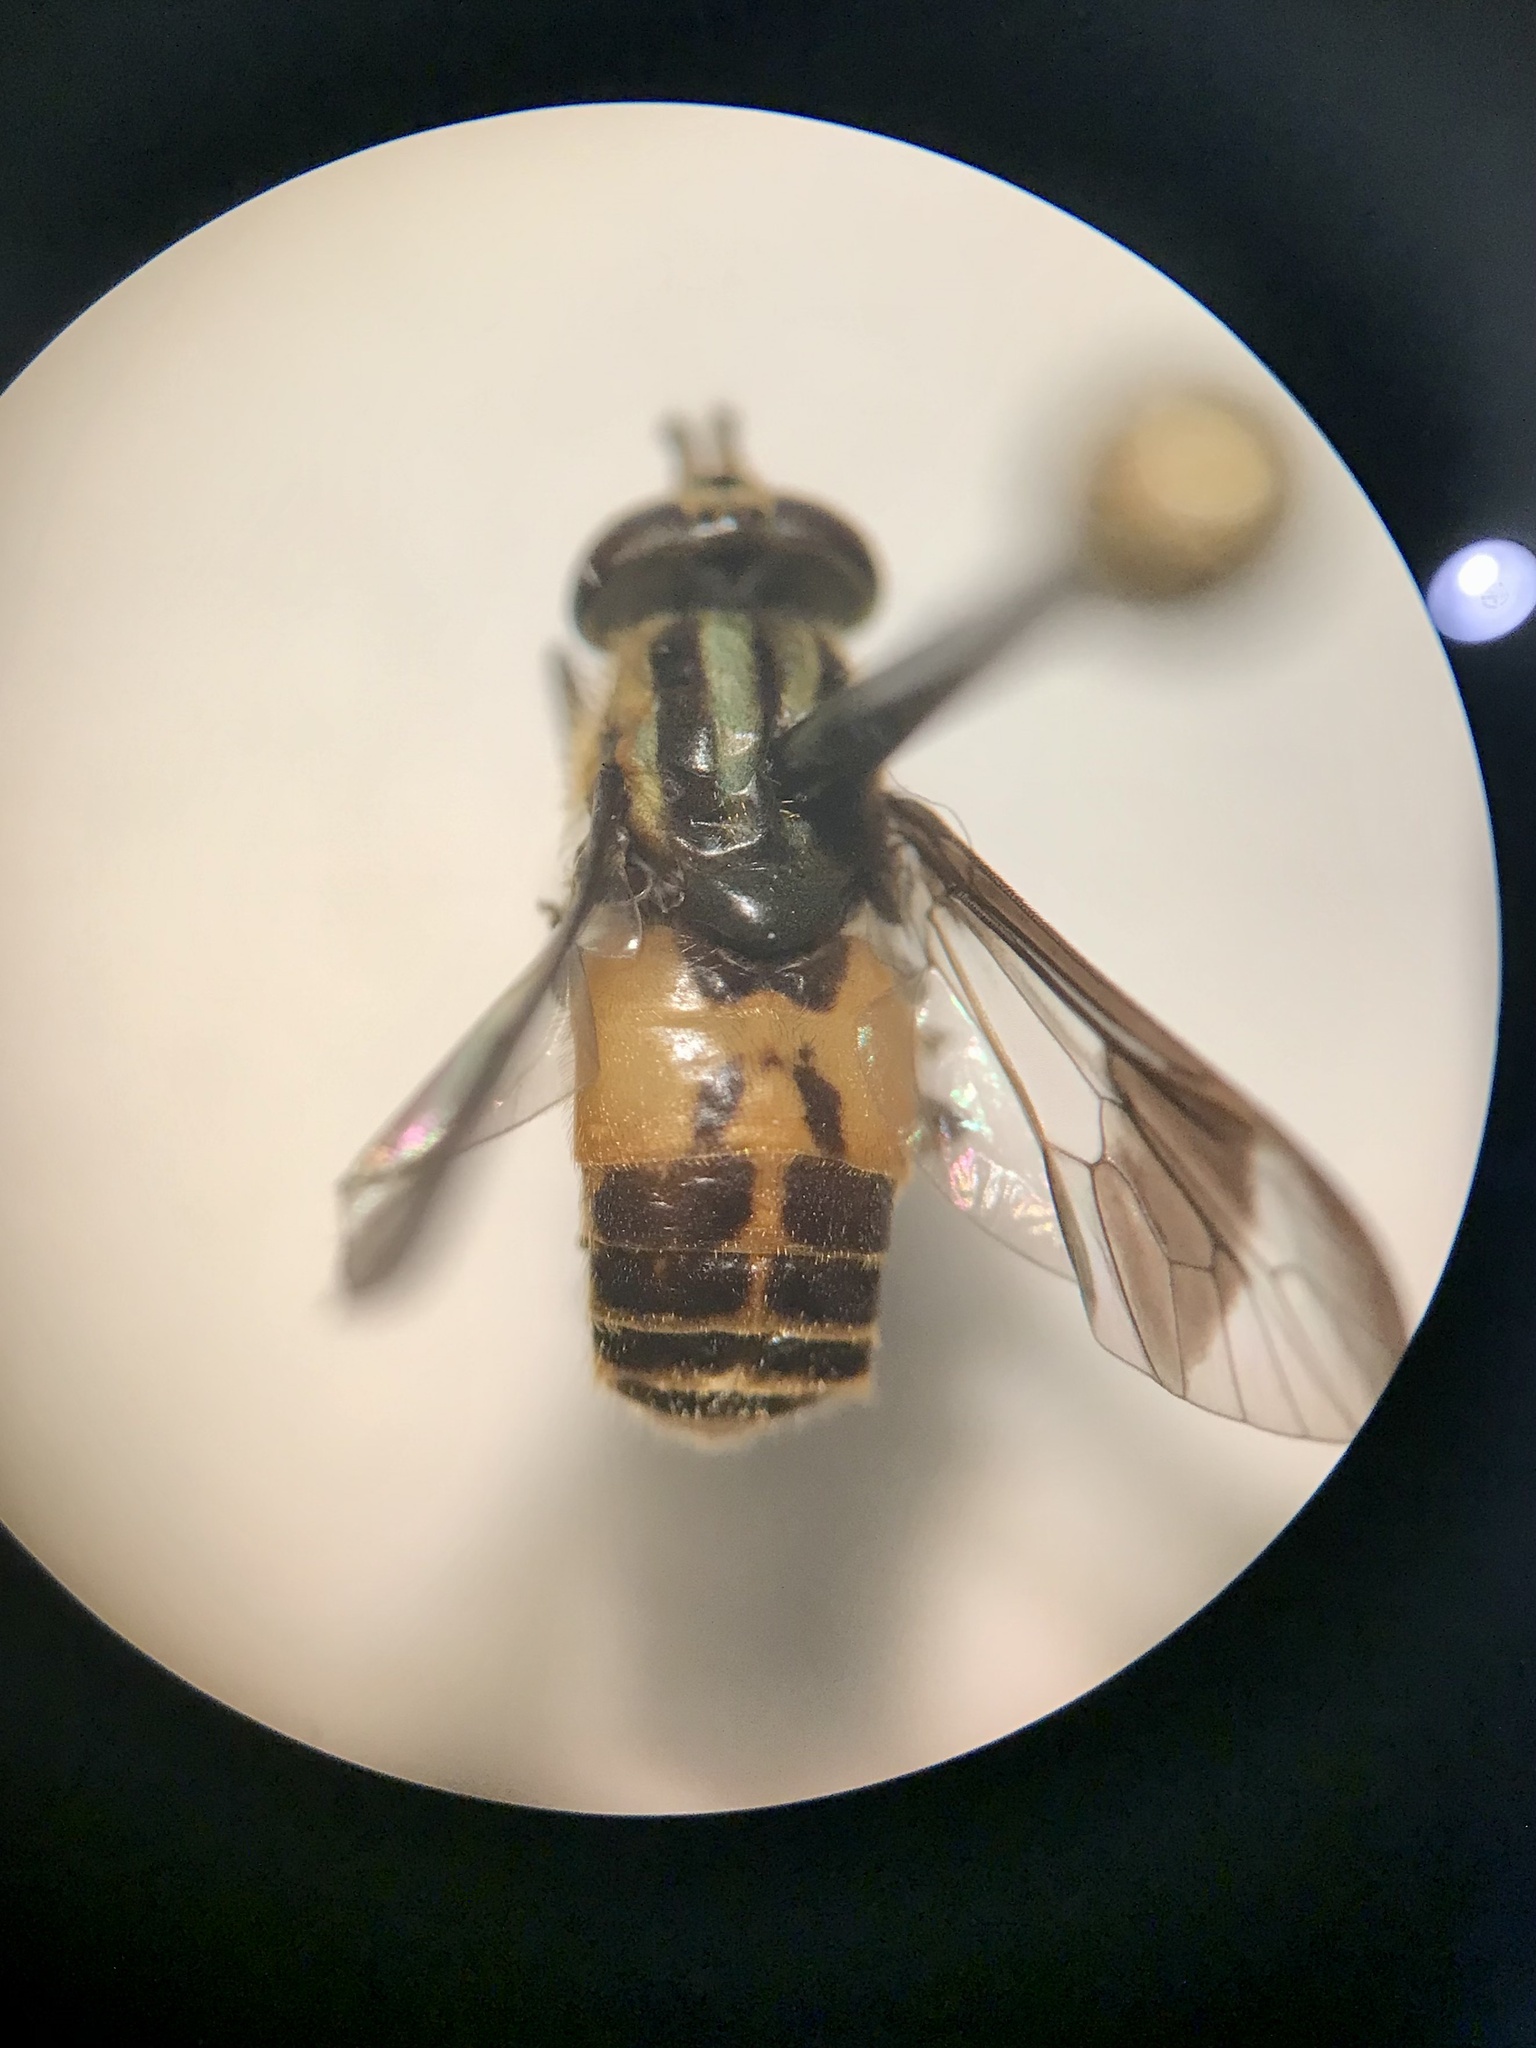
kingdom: Animalia
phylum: Arthropoda
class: Insecta
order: Diptera
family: Tabanidae
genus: Chrysops
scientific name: Chrysops geminatus
